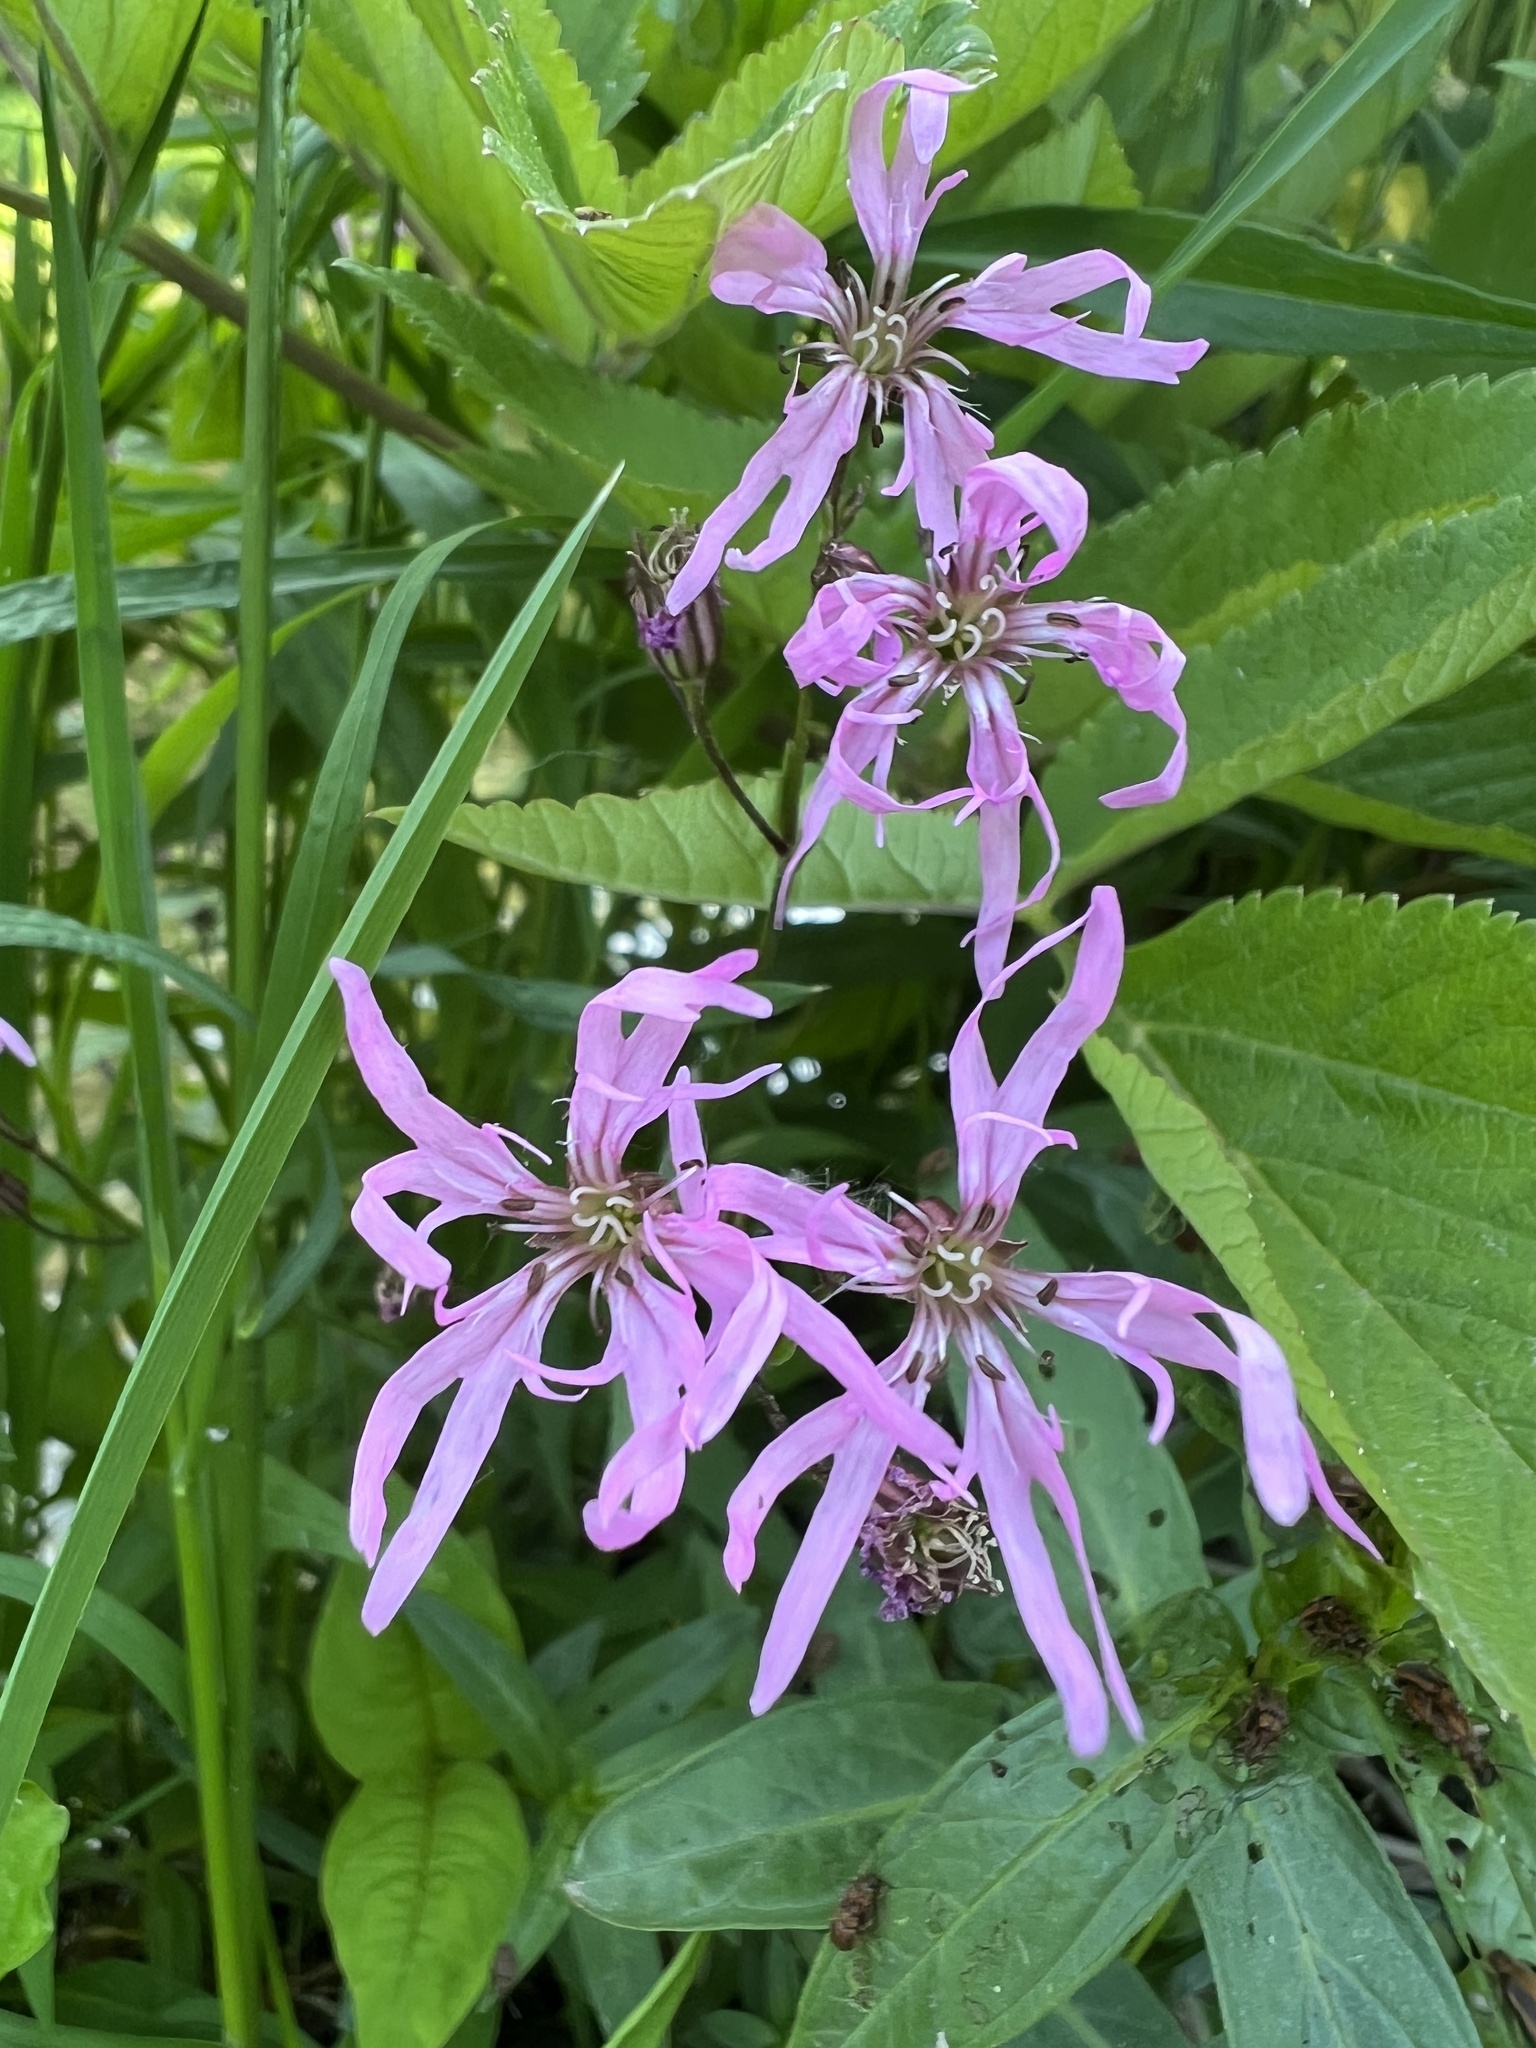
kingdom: Plantae
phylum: Tracheophyta
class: Magnoliopsida
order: Caryophyllales
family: Caryophyllaceae
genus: Silene
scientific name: Silene flos-cuculi
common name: Ragged-robin
